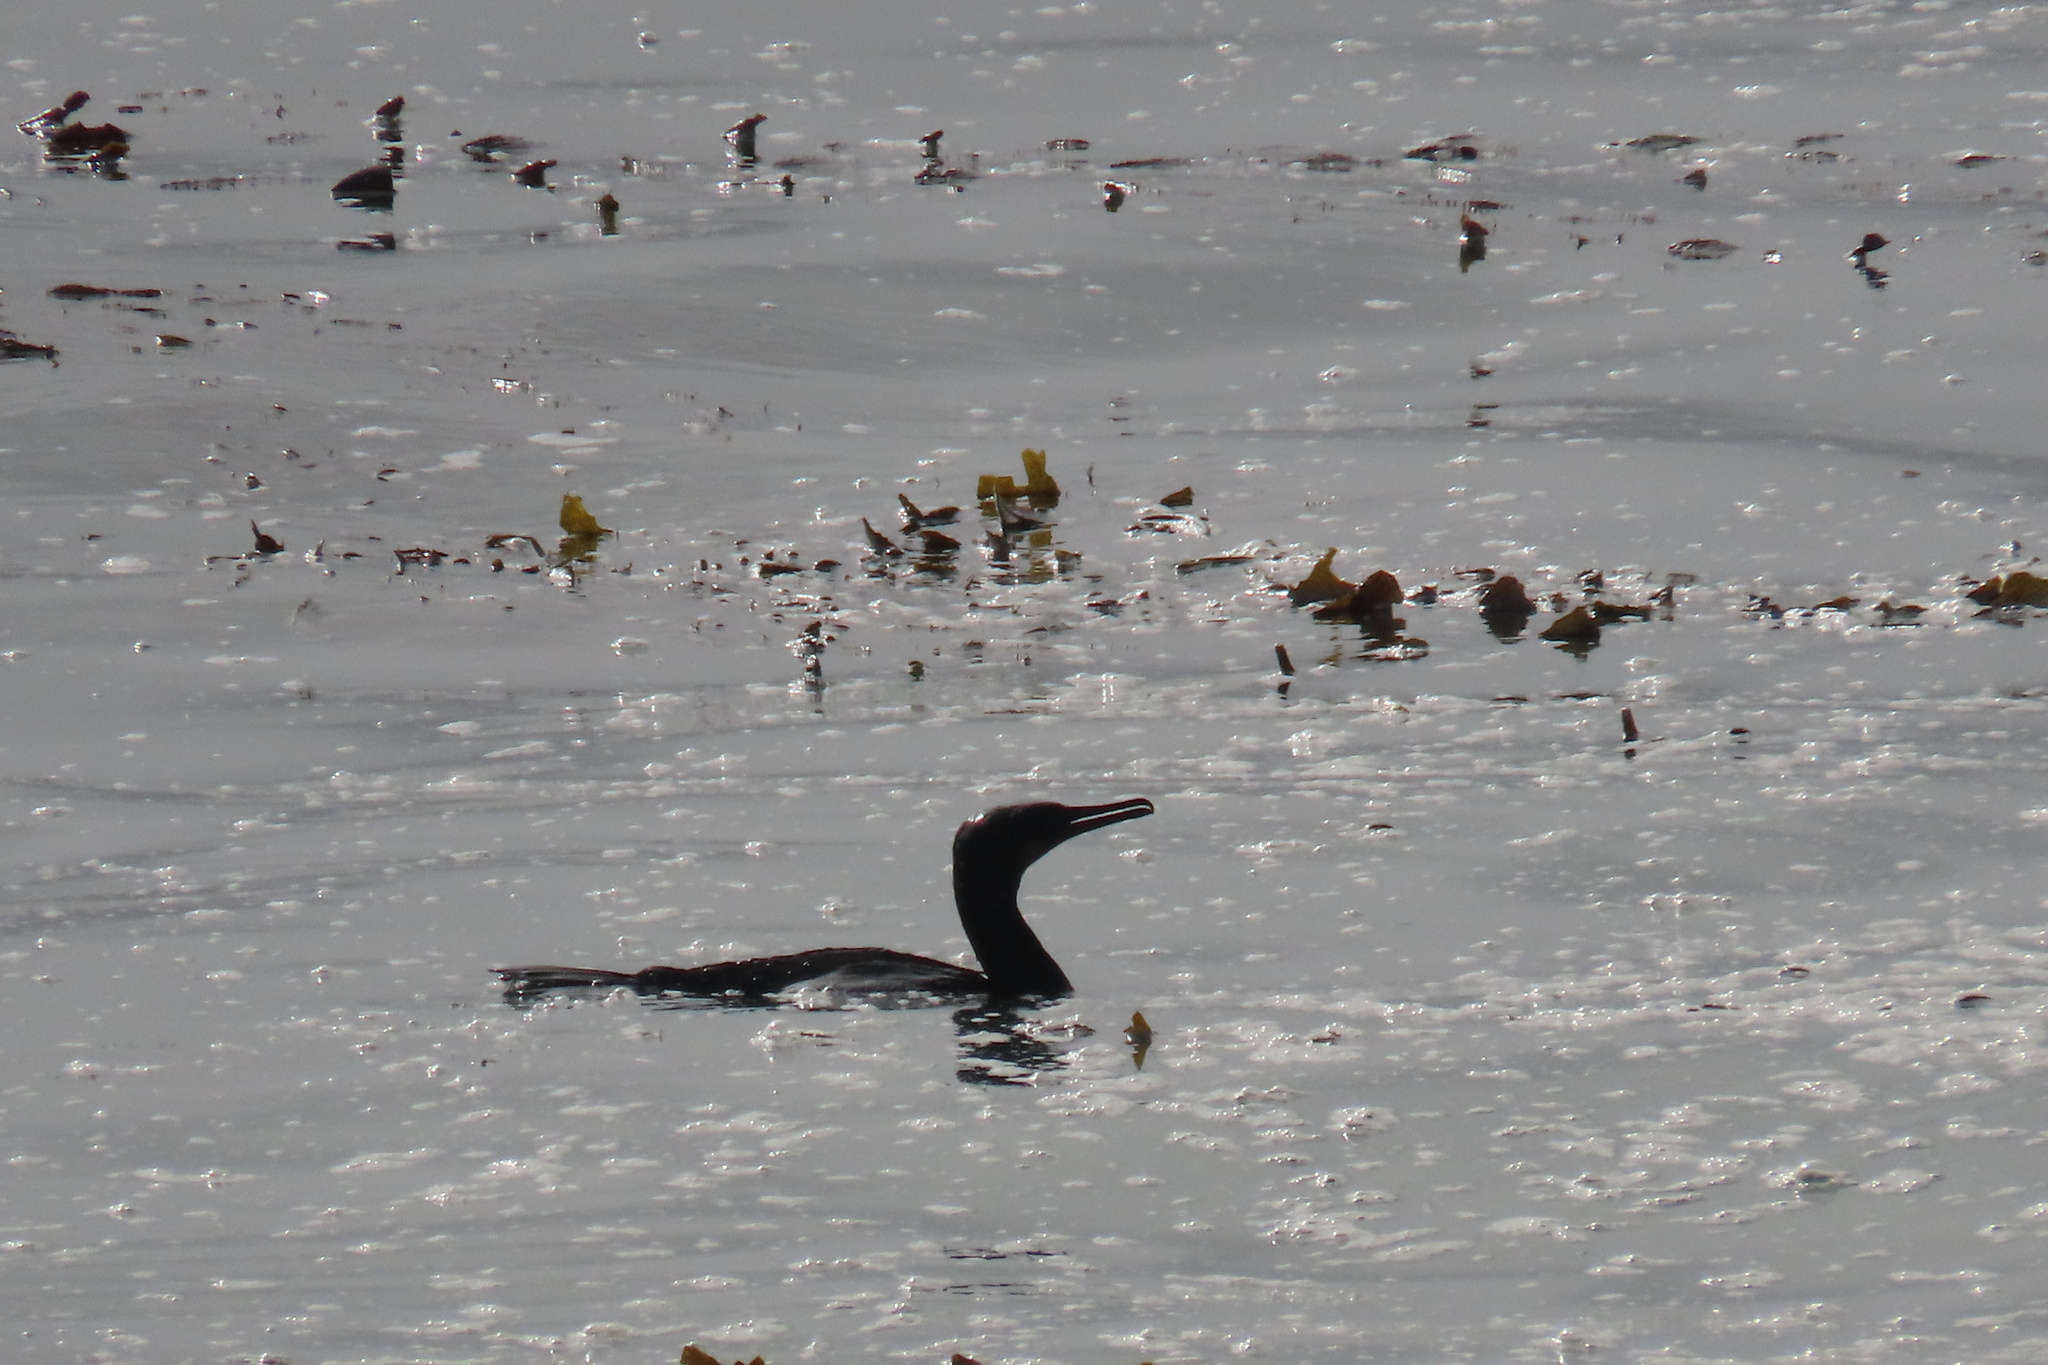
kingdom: Animalia
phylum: Chordata
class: Aves
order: Suliformes
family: Phalacrocoracidae
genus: Phalacrocorax
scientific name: Phalacrocorax pelagicus
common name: Pelagic cormorant
